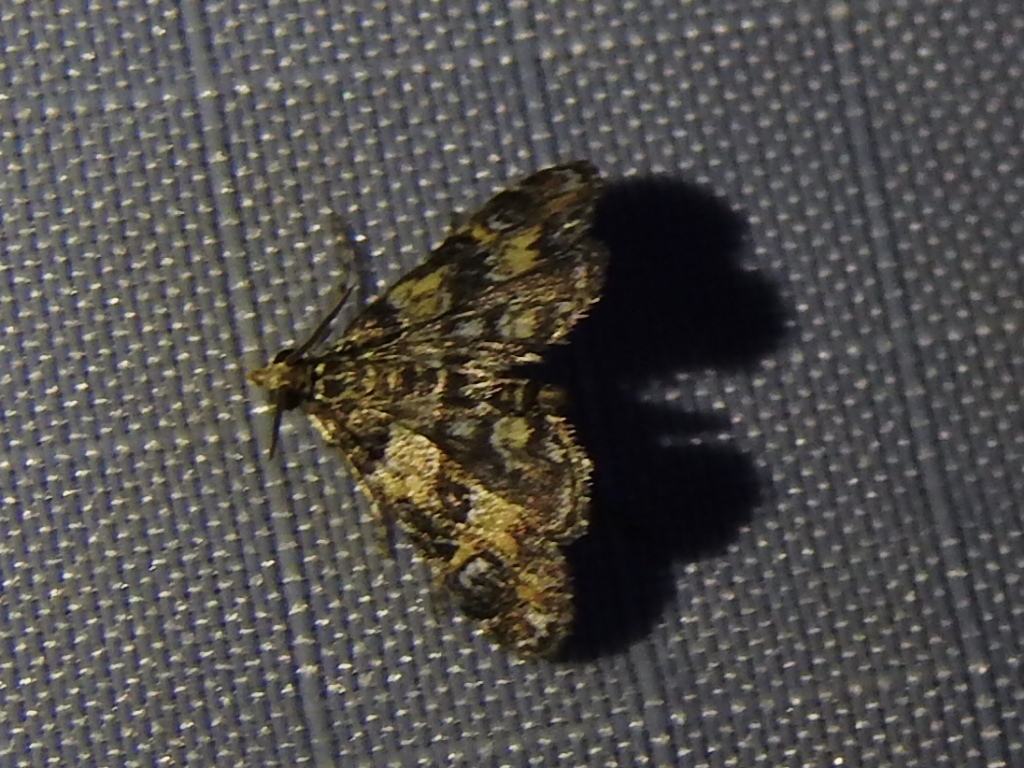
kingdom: Animalia
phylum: Arthropoda
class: Insecta
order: Lepidoptera
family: Crambidae
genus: Elophila
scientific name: Elophila obliteralis
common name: Waterlily leafcutter moth
